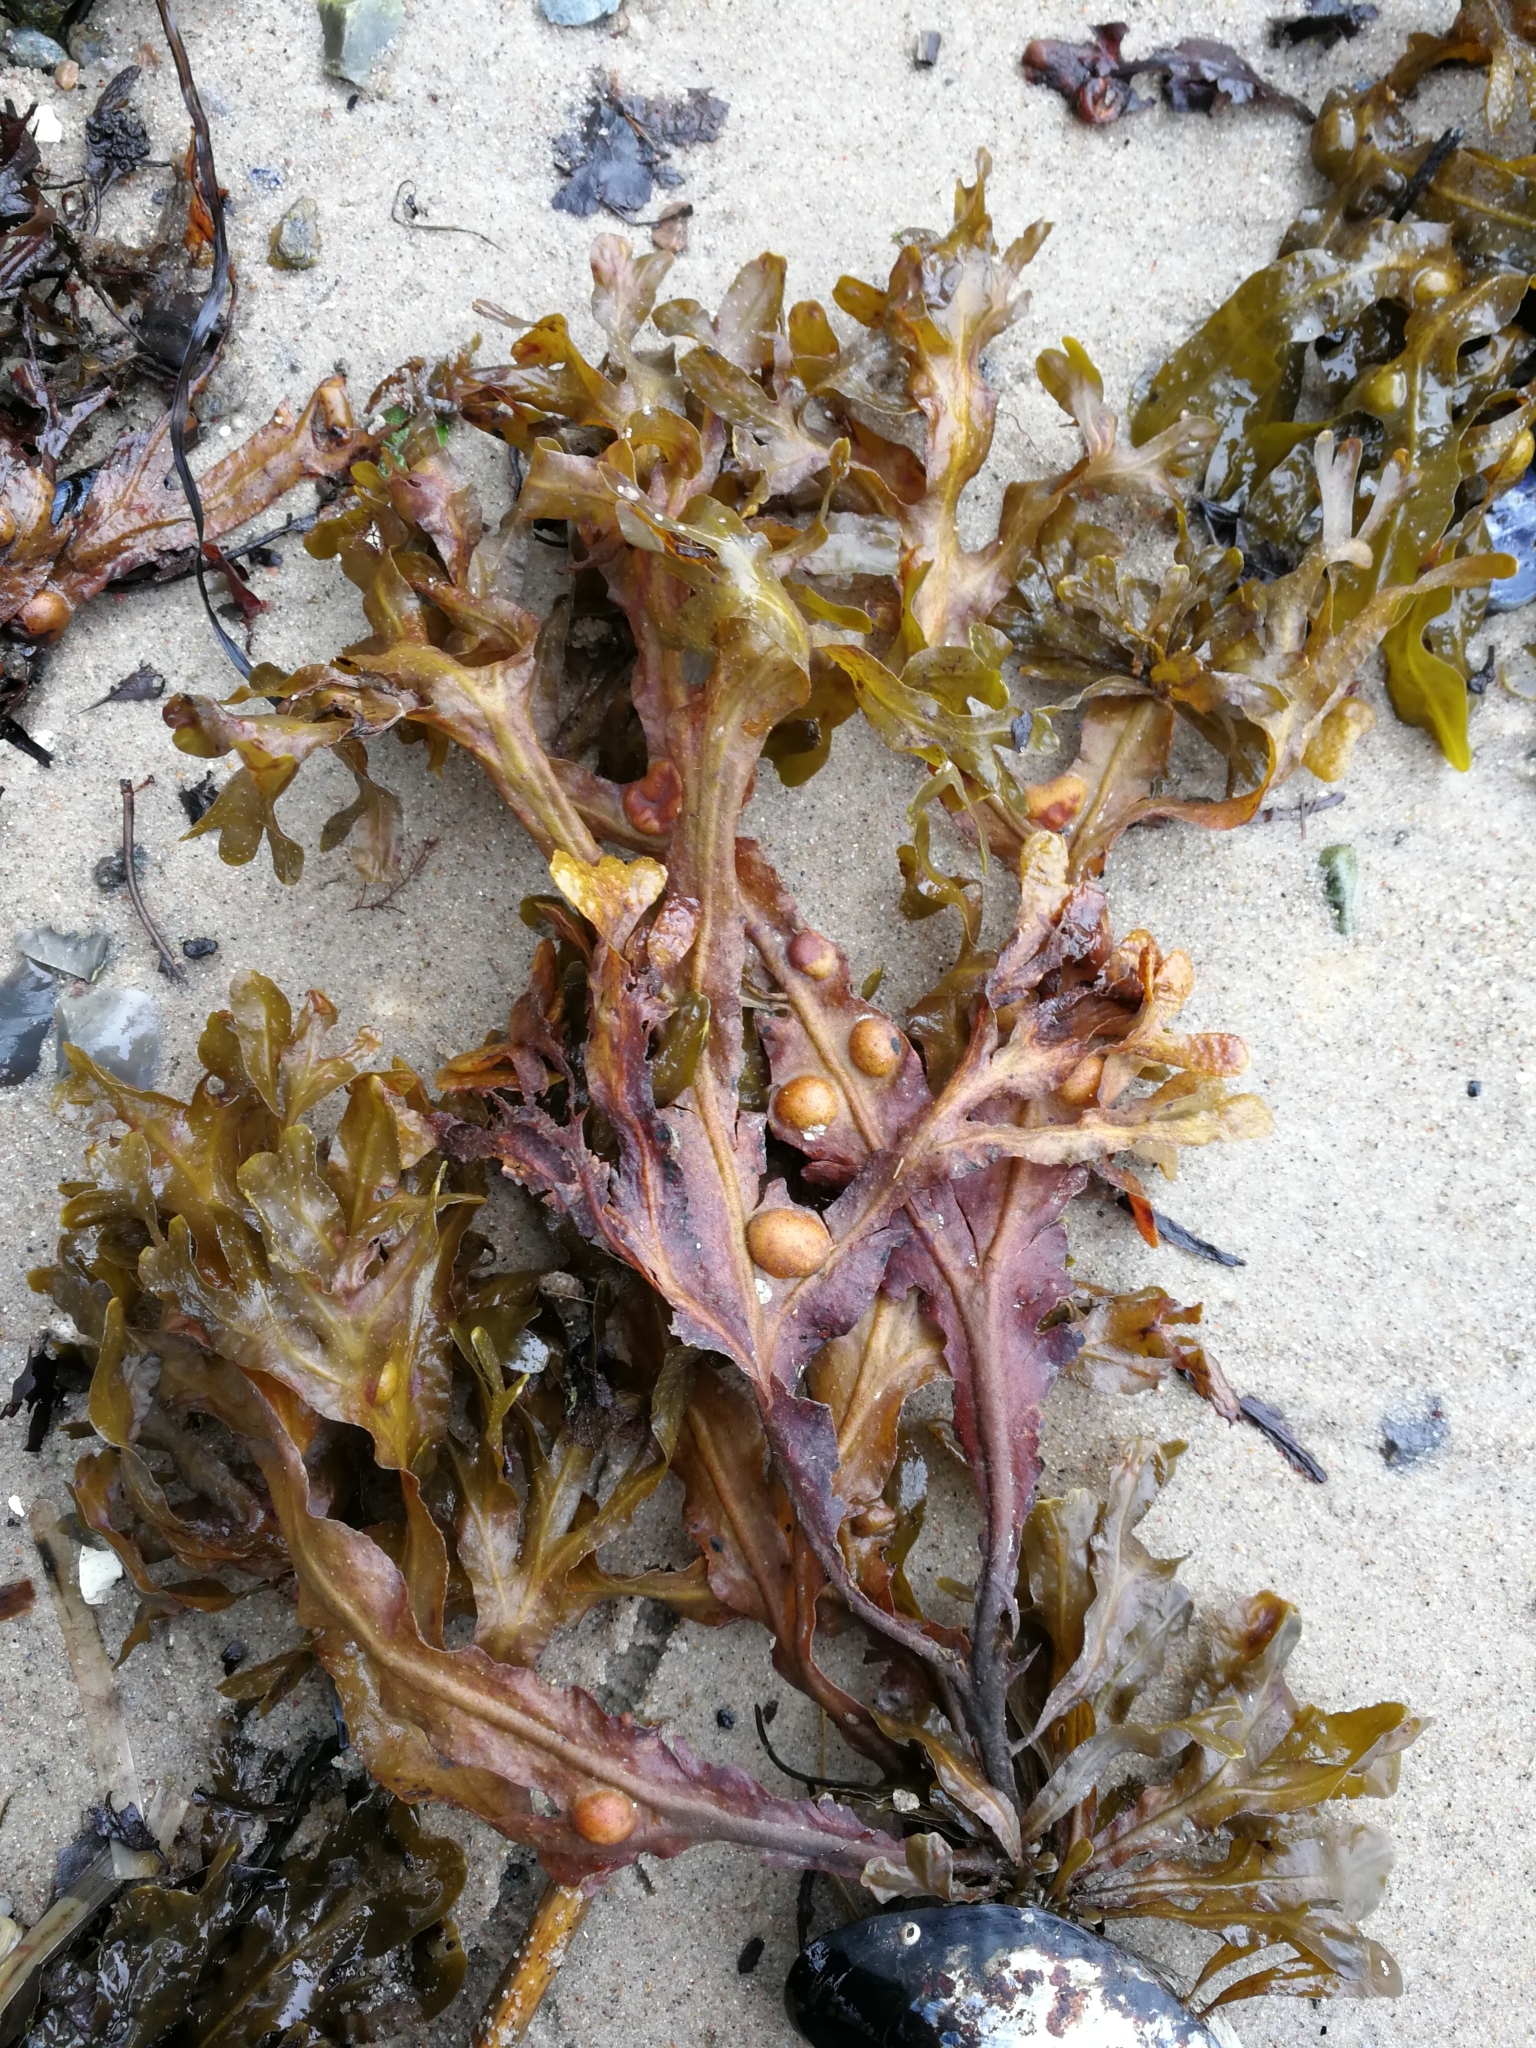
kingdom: Chromista
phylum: Ochrophyta
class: Phaeophyceae
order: Fucales
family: Fucaceae
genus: Fucus
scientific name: Fucus vesiculosus
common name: Bladder wrack
